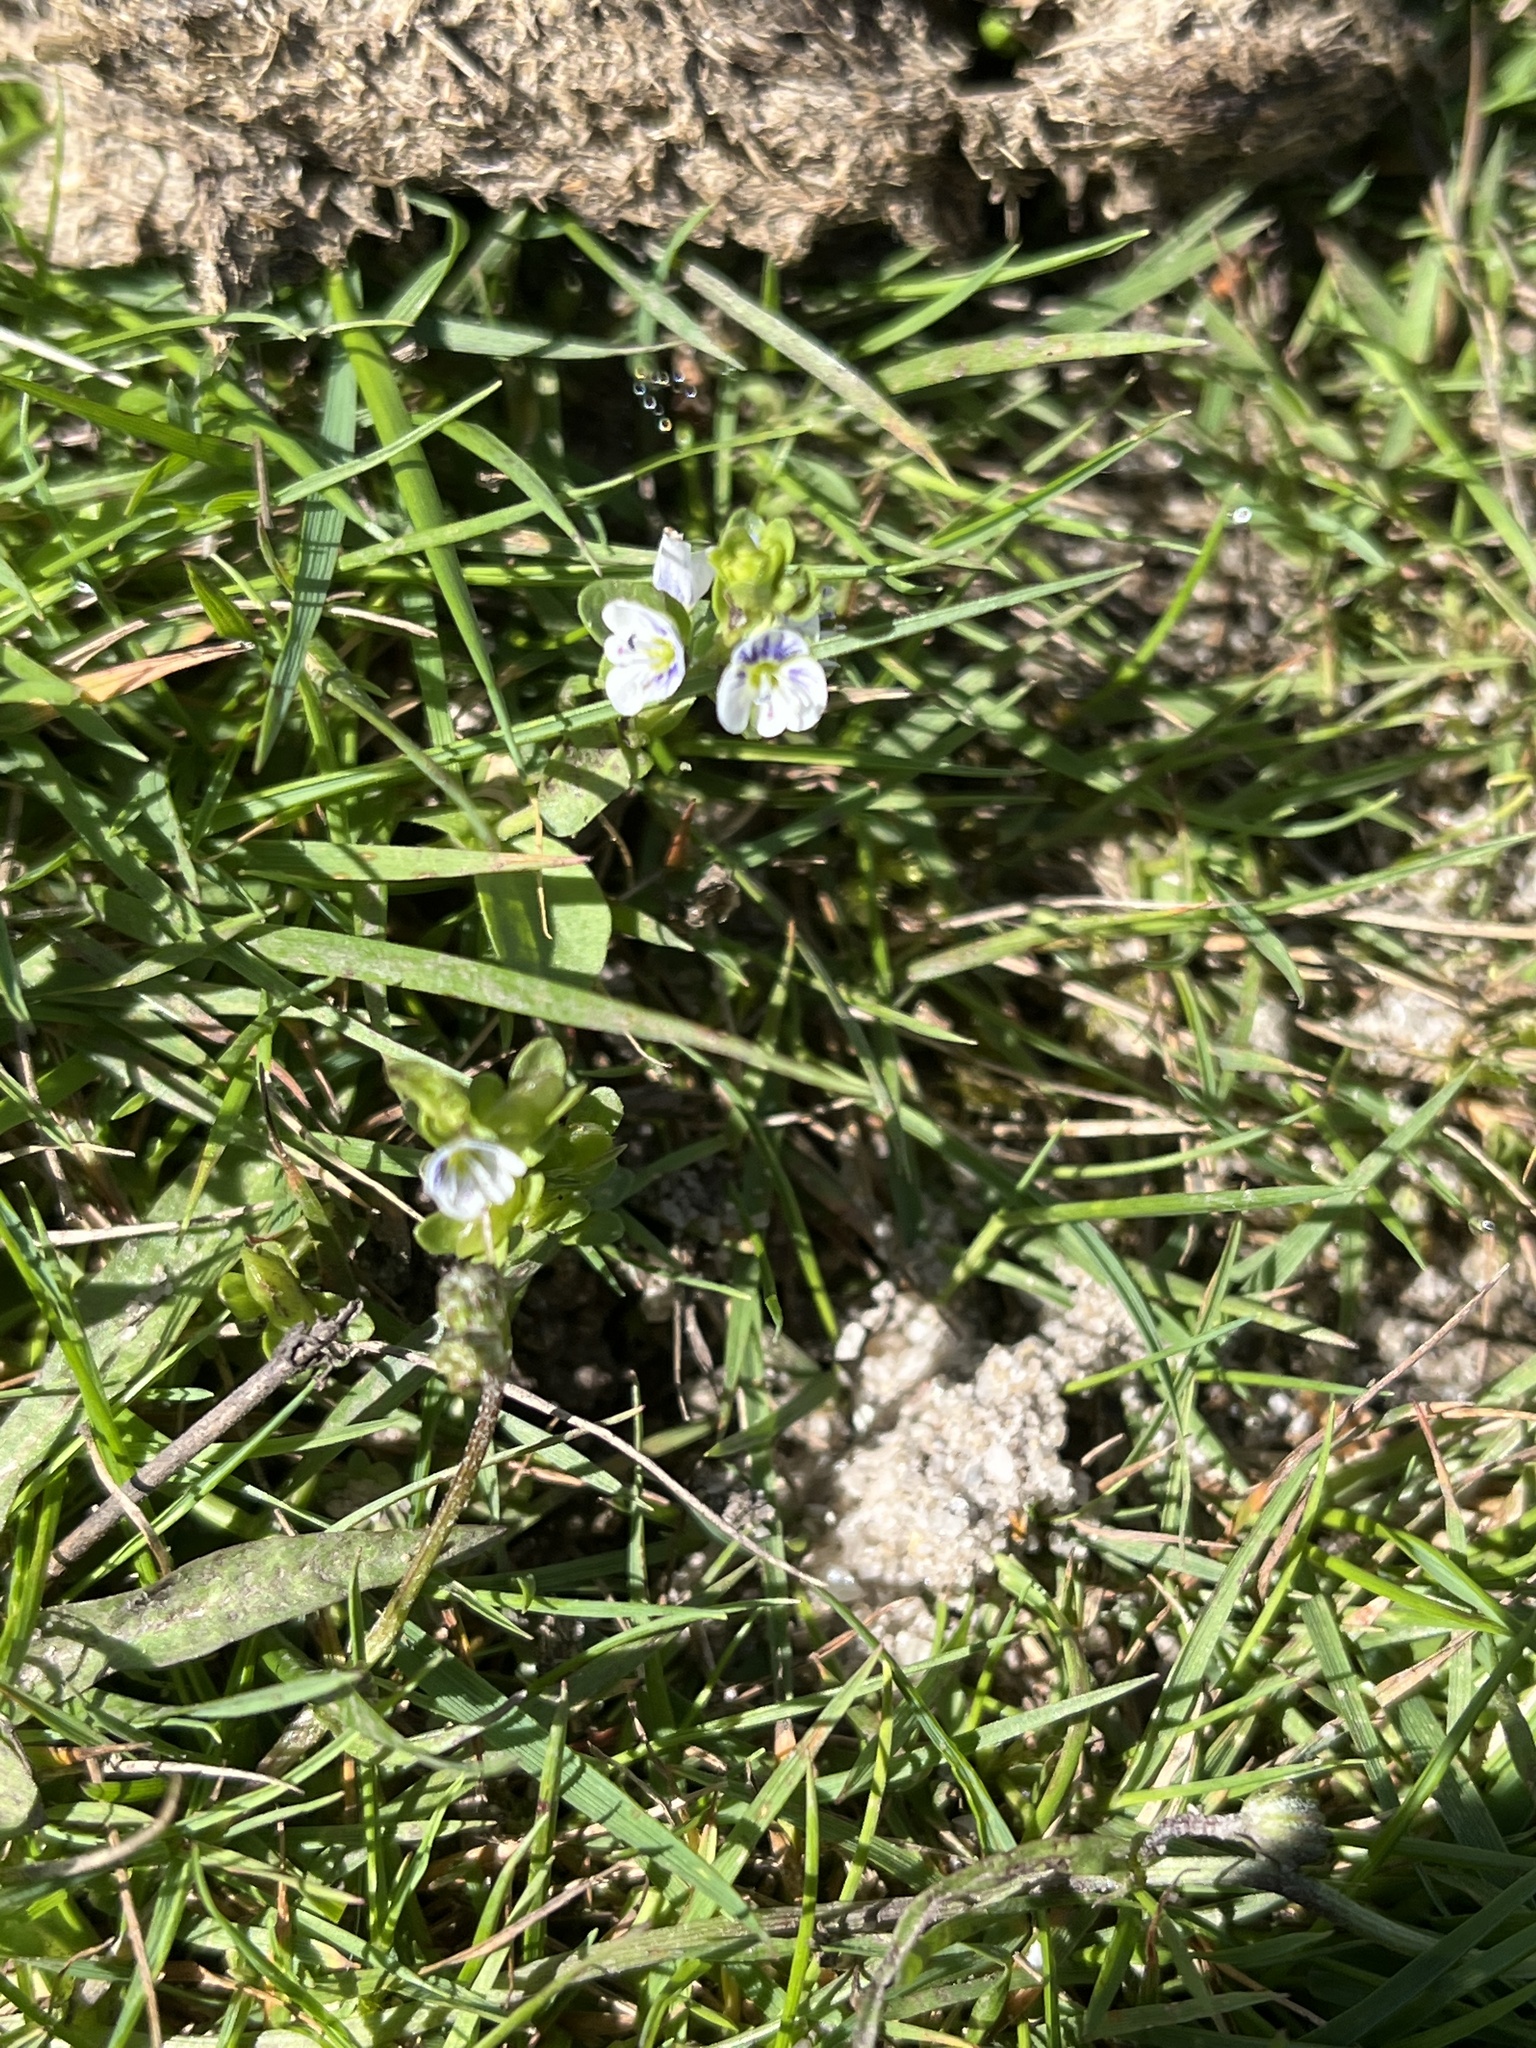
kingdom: Plantae
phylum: Tracheophyta
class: Magnoliopsida
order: Lamiales
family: Plantaginaceae
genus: Veronica
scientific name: Veronica serpyllifolia
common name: Thyme-leaved speedwell
